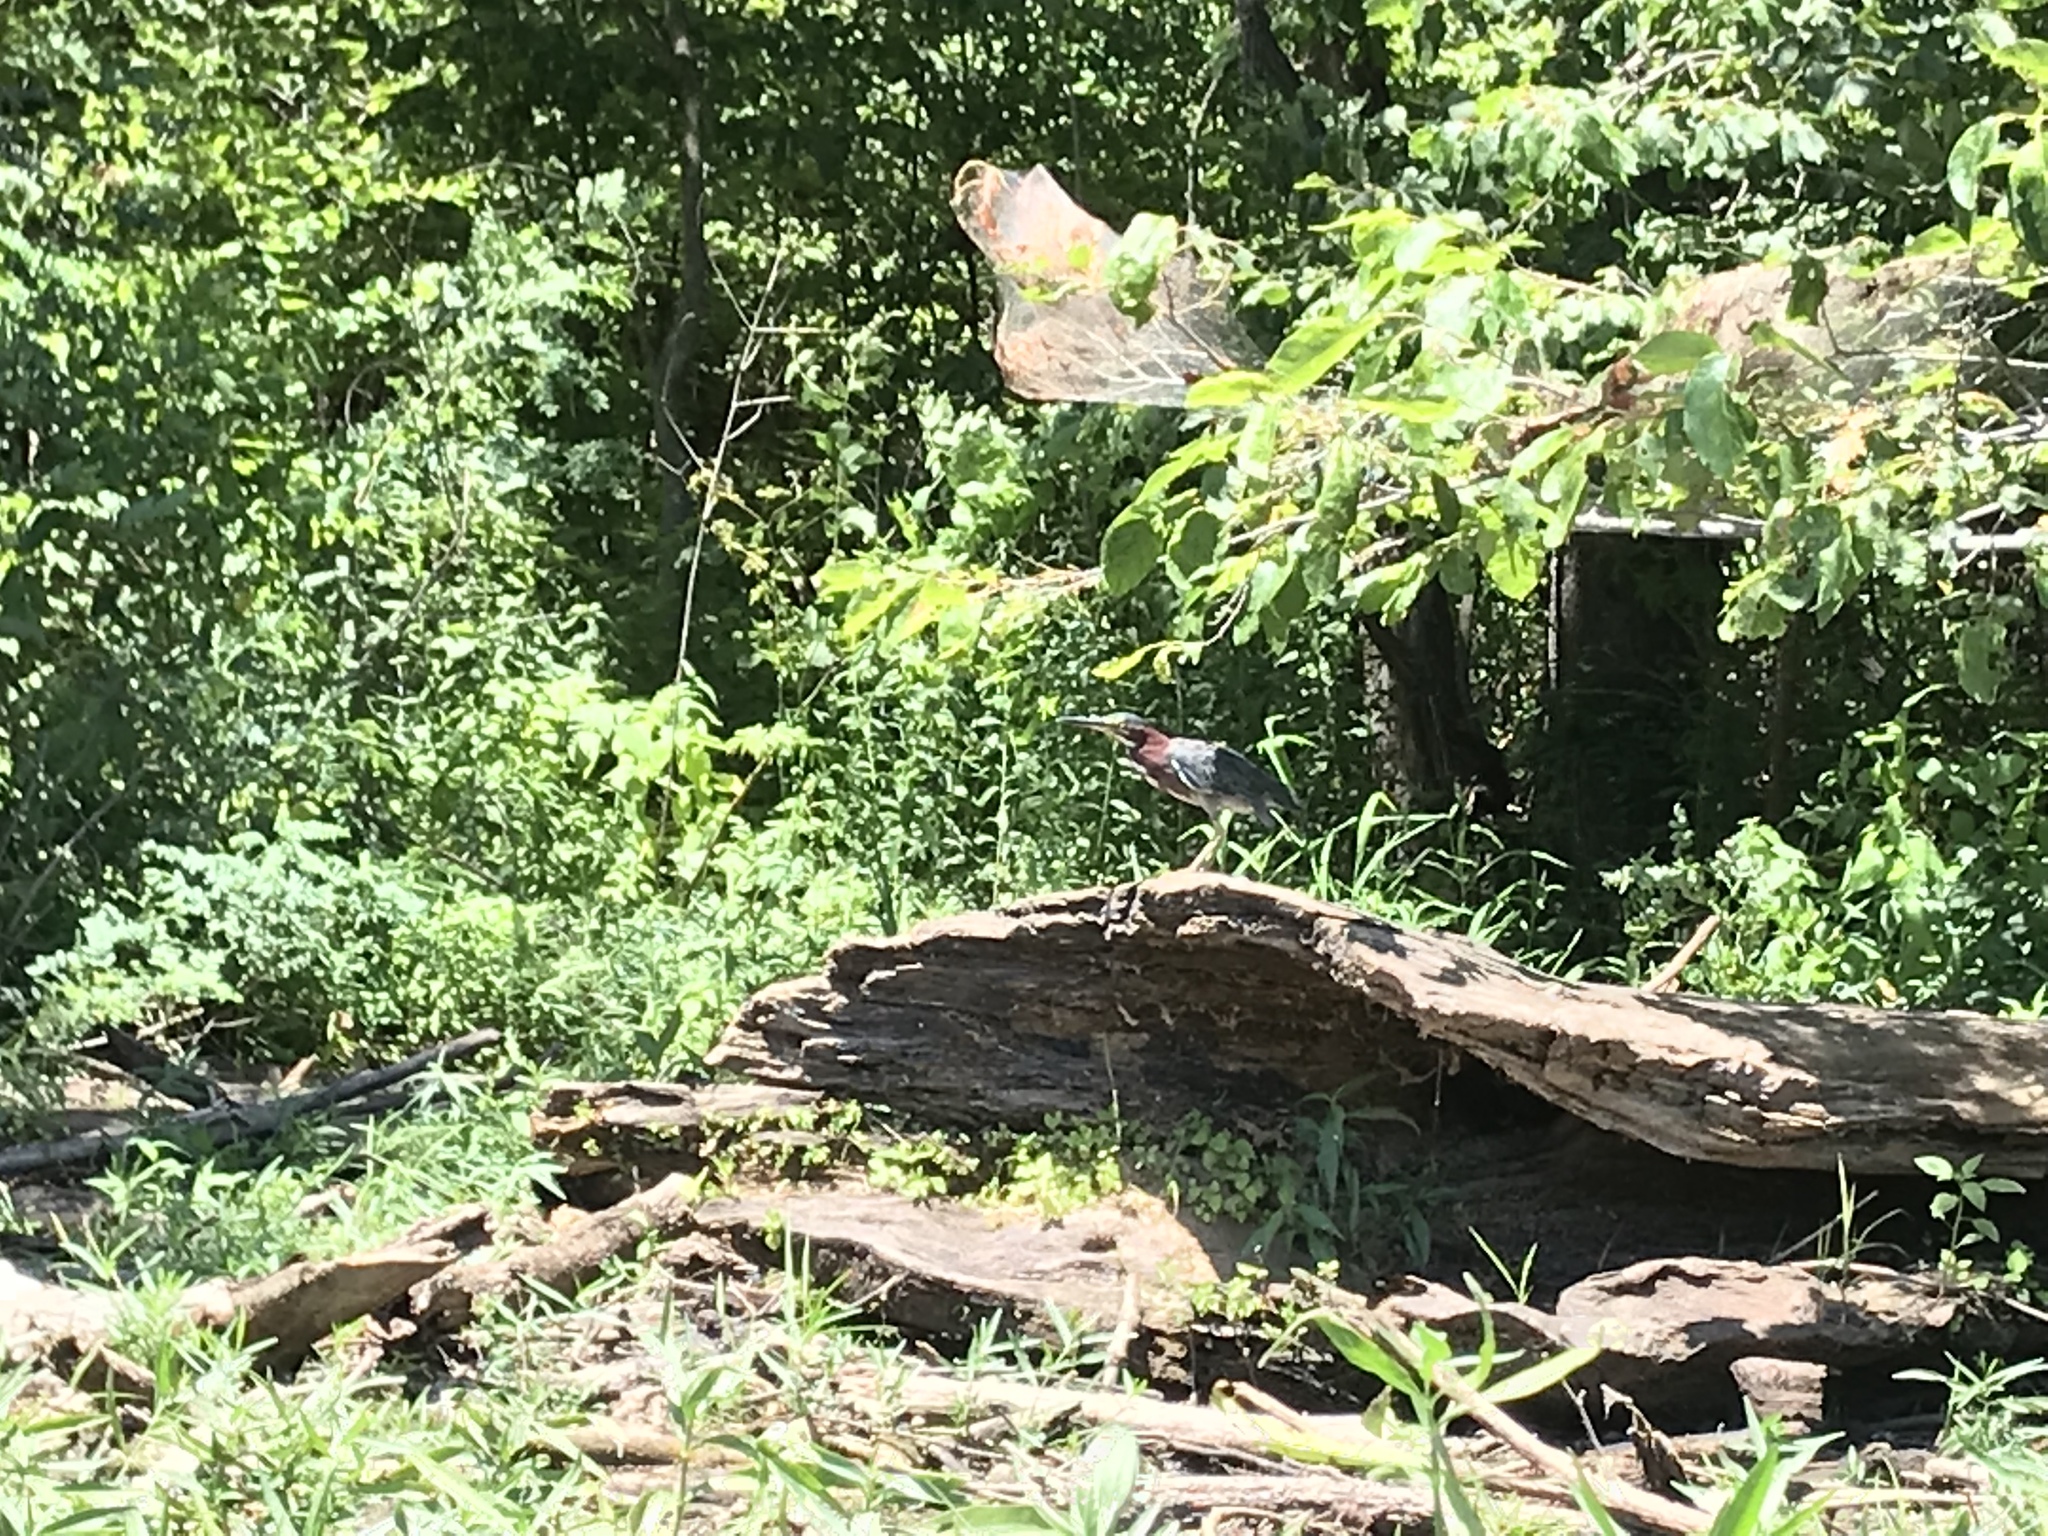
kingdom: Animalia
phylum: Chordata
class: Aves
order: Pelecaniformes
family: Ardeidae
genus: Butorides
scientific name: Butorides virescens
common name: Green heron
